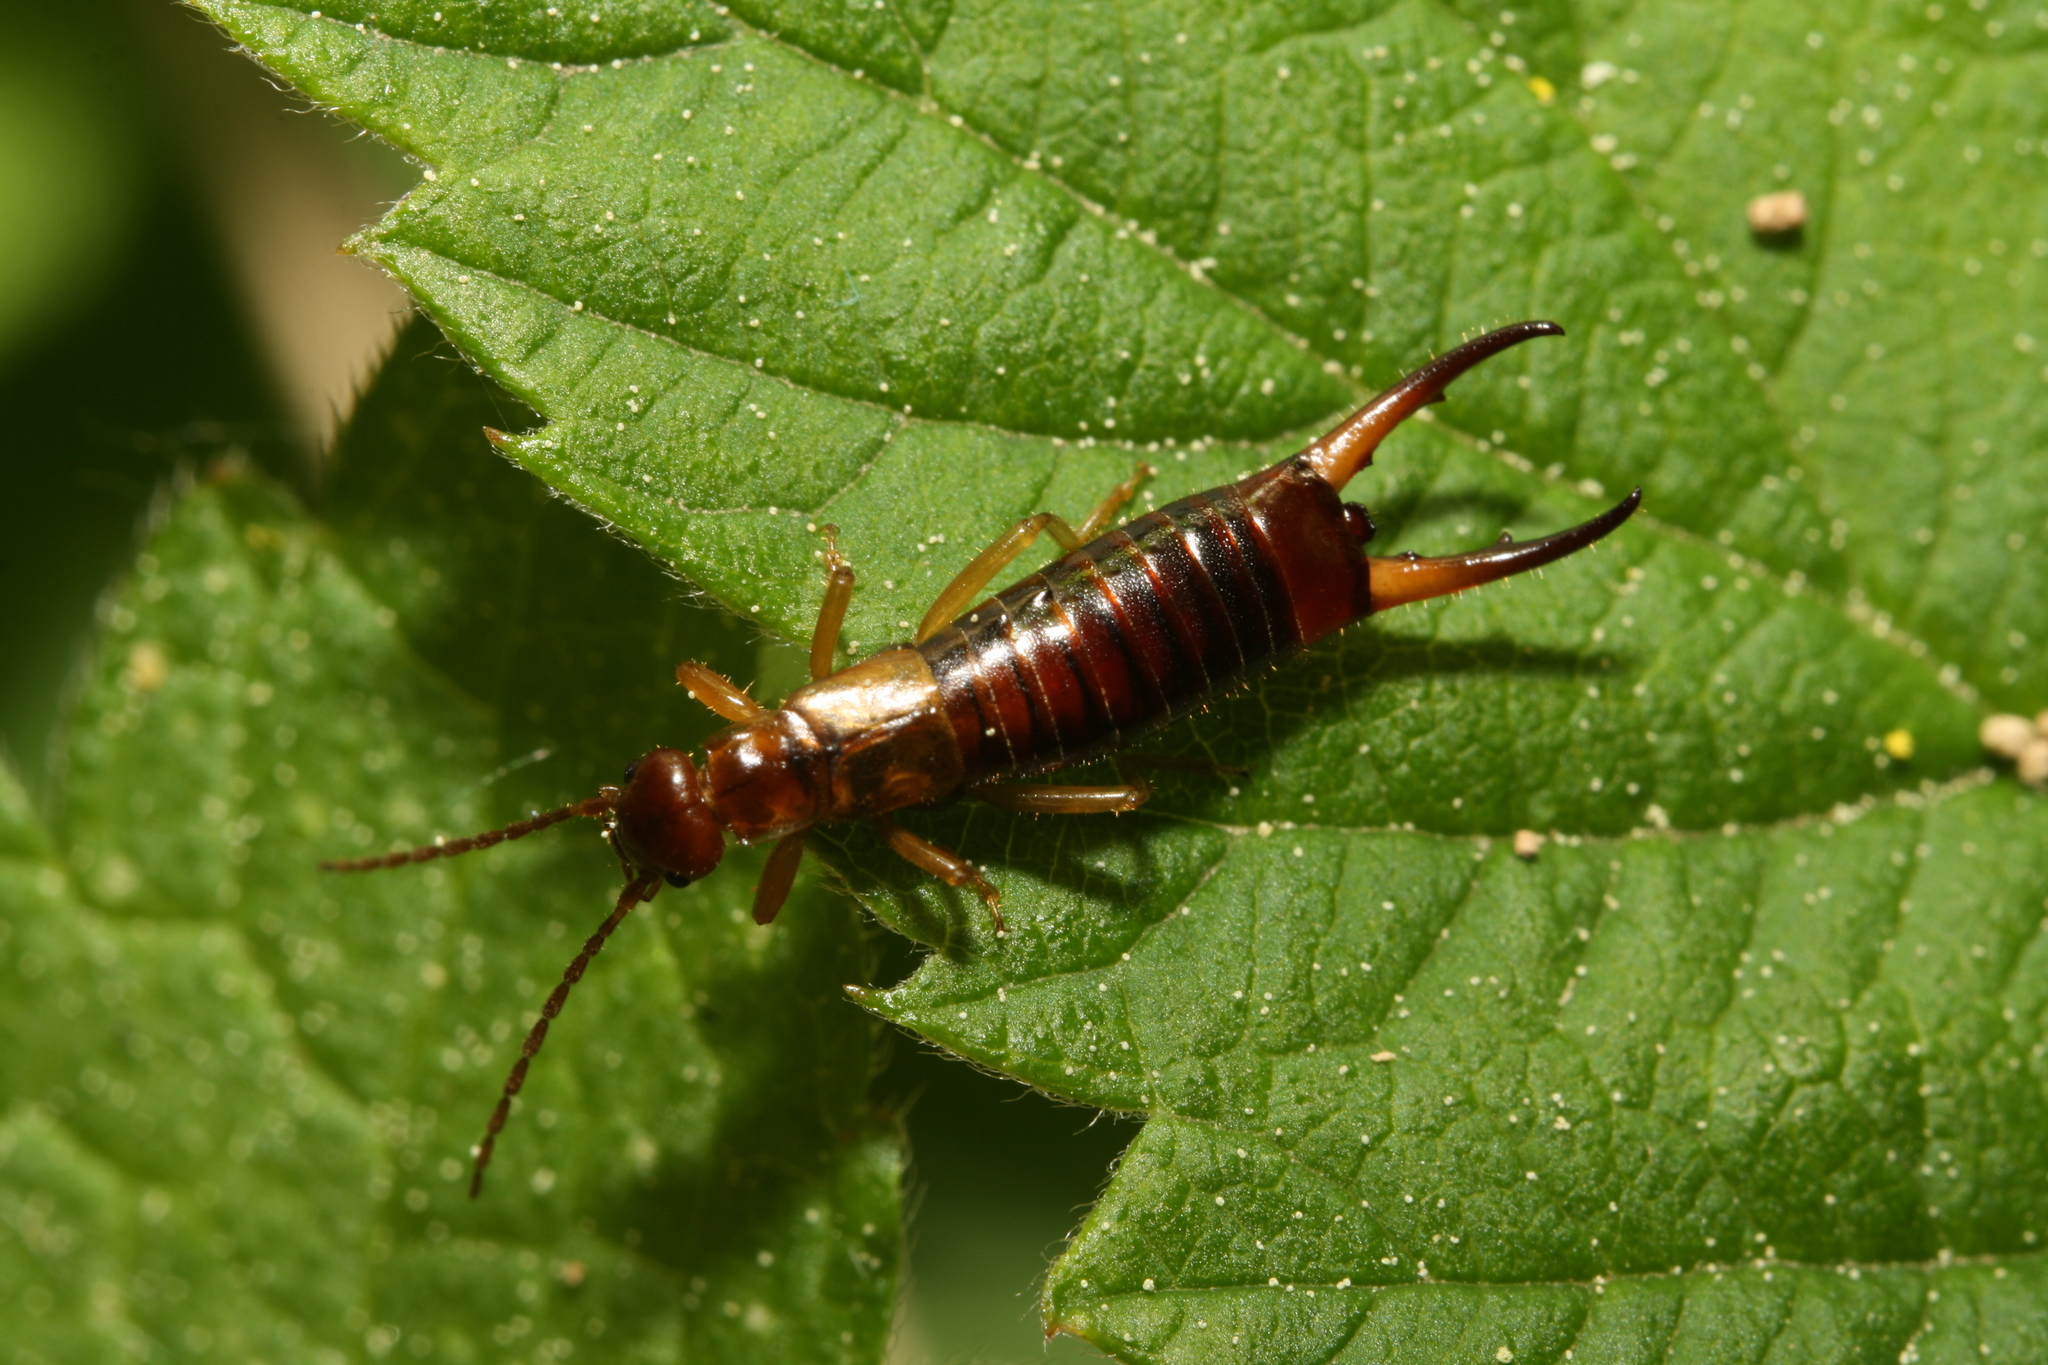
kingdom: Animalia
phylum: Arthropoda
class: Insecta
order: Dermaptera
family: Forficulidae
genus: Apterygida
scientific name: Apterygida albipennis
